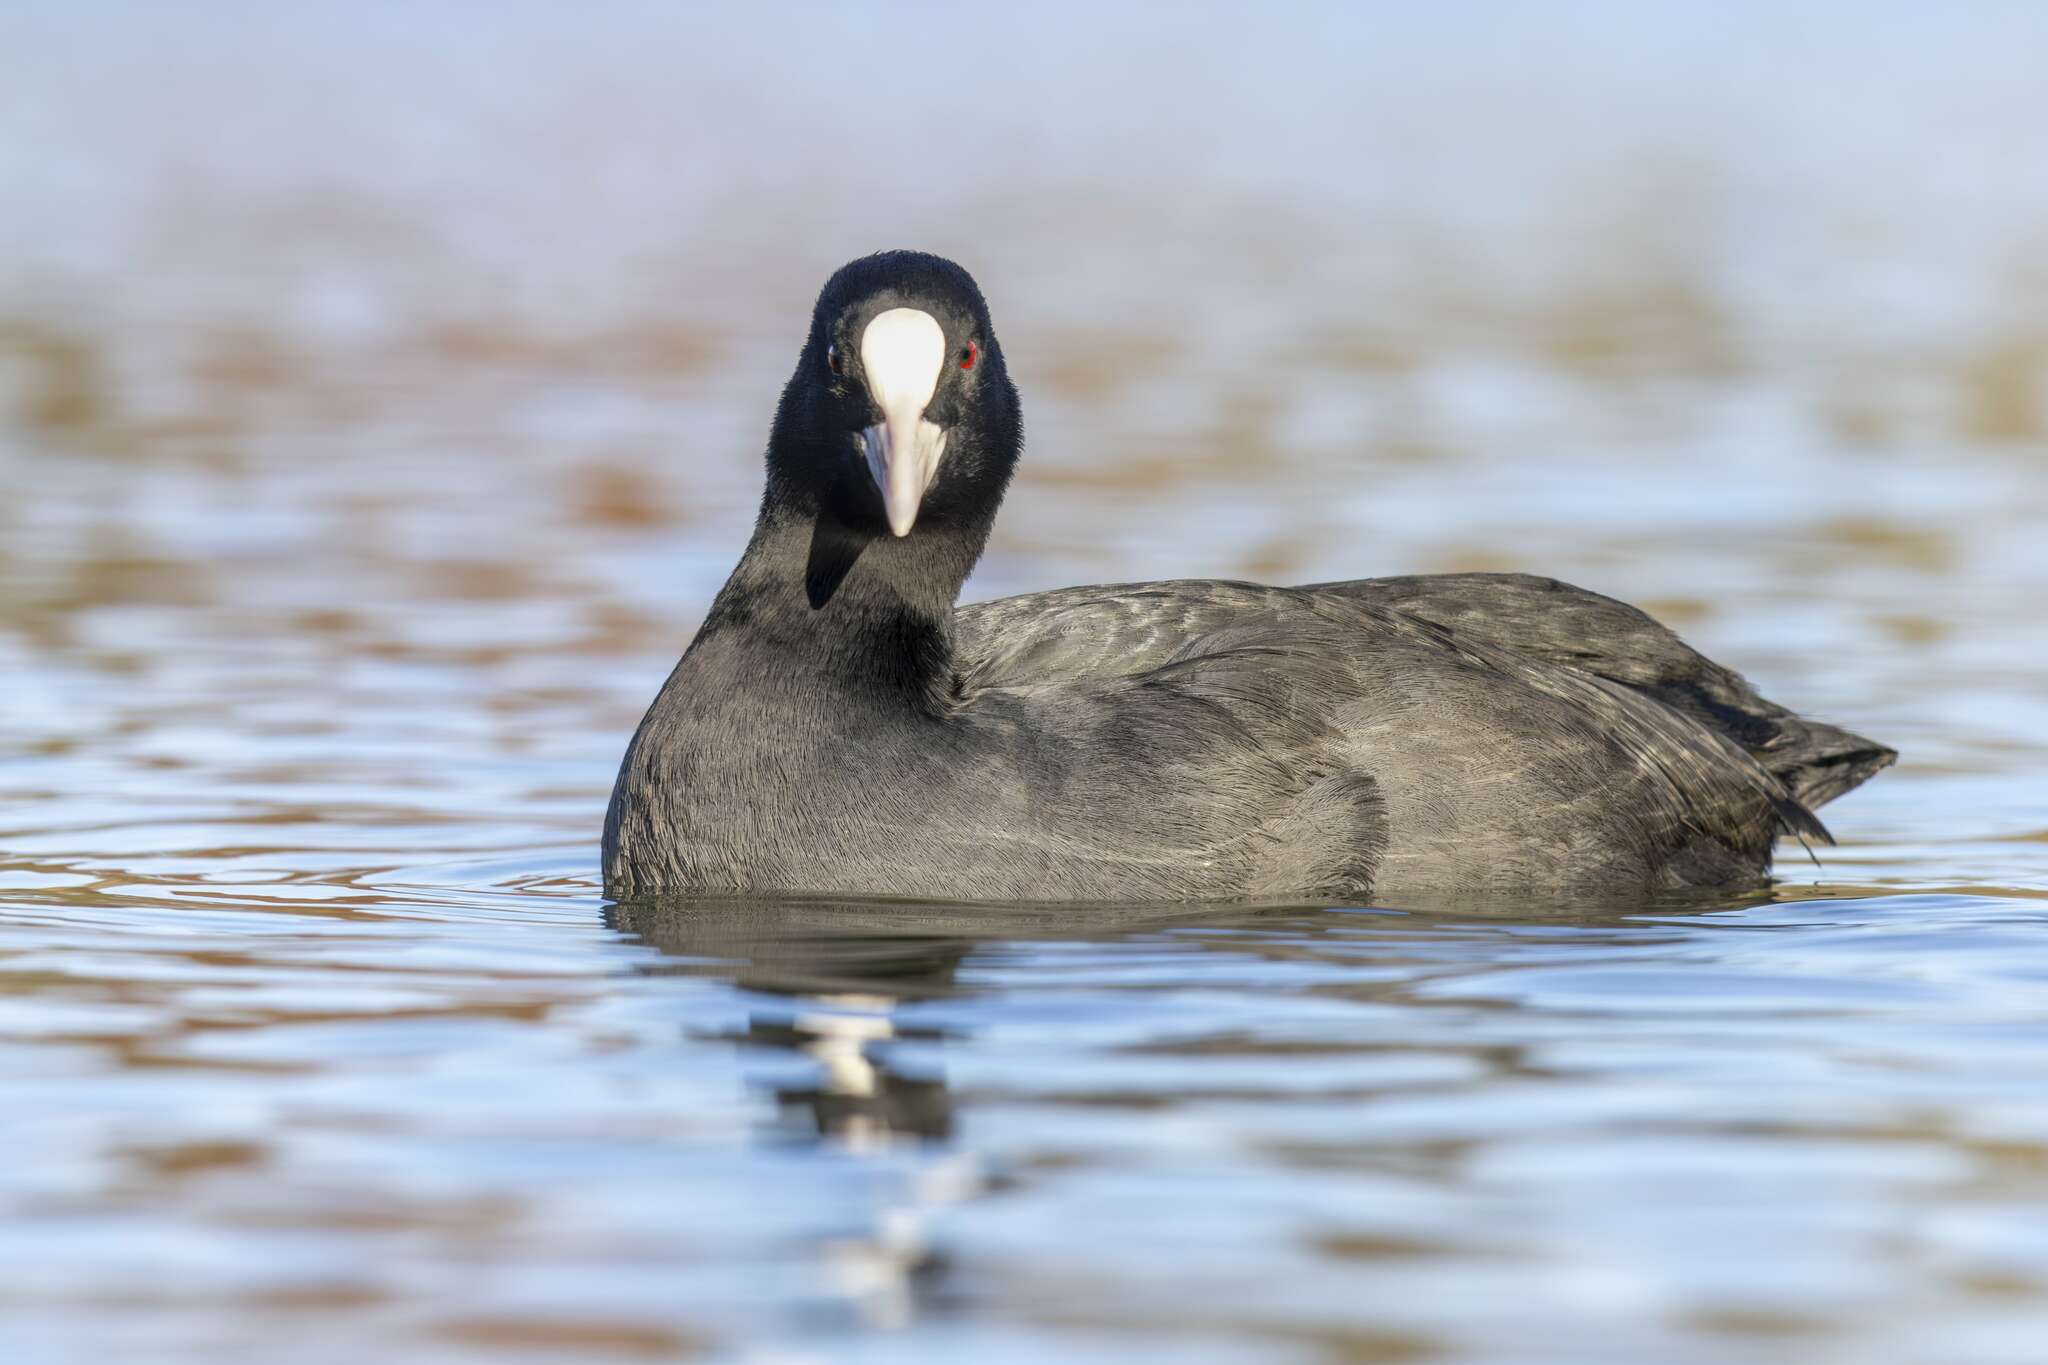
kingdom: Animalia
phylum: Chordata
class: Aves
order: Gruiformes
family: Rallidae
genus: Fulica
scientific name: Fulica atra
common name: Eurasian coot
